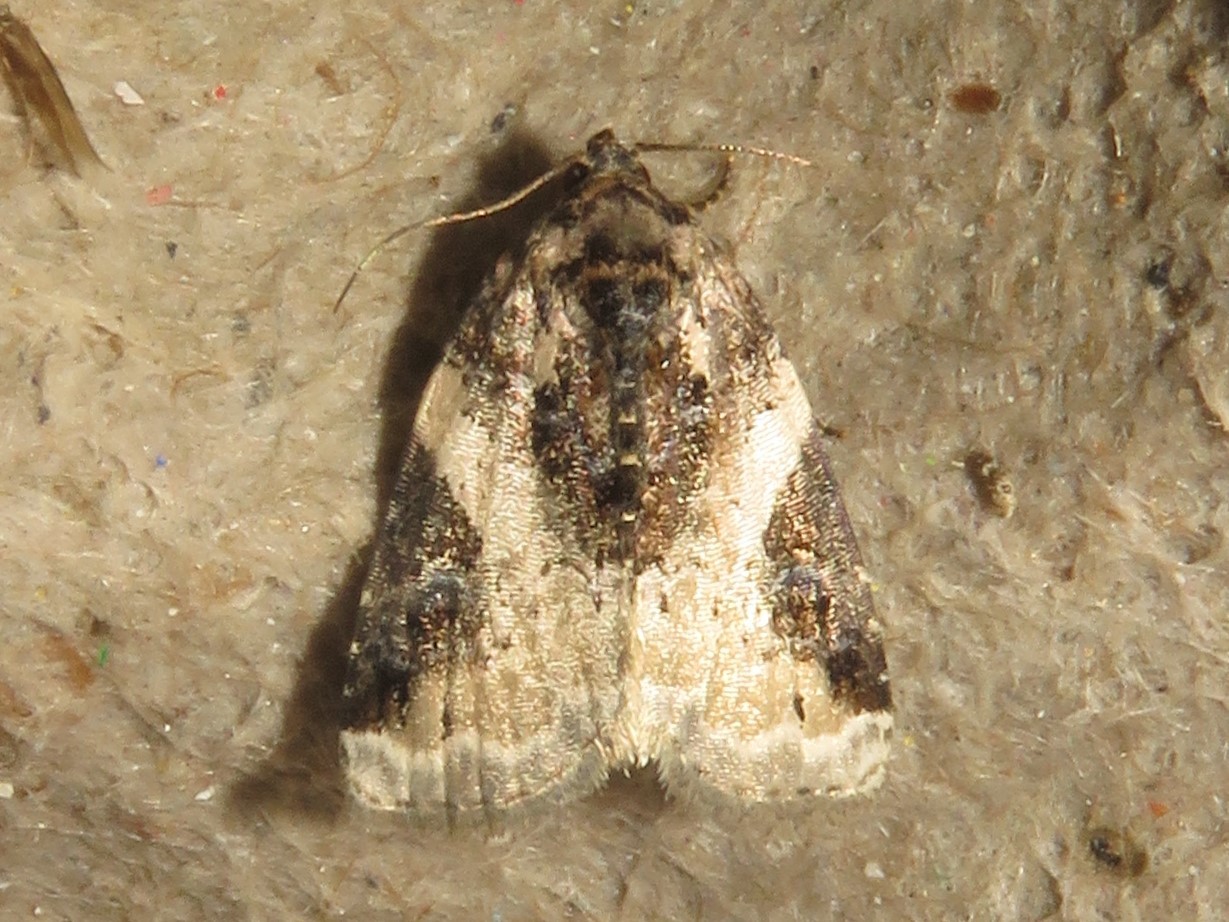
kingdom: Animalia
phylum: Arthropoda
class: Insecta
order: Lepidoptera
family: Noctuidae
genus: Pseudeustrotia
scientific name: Pseudeustrotia carneola
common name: Pink-barred lithacodia moth
